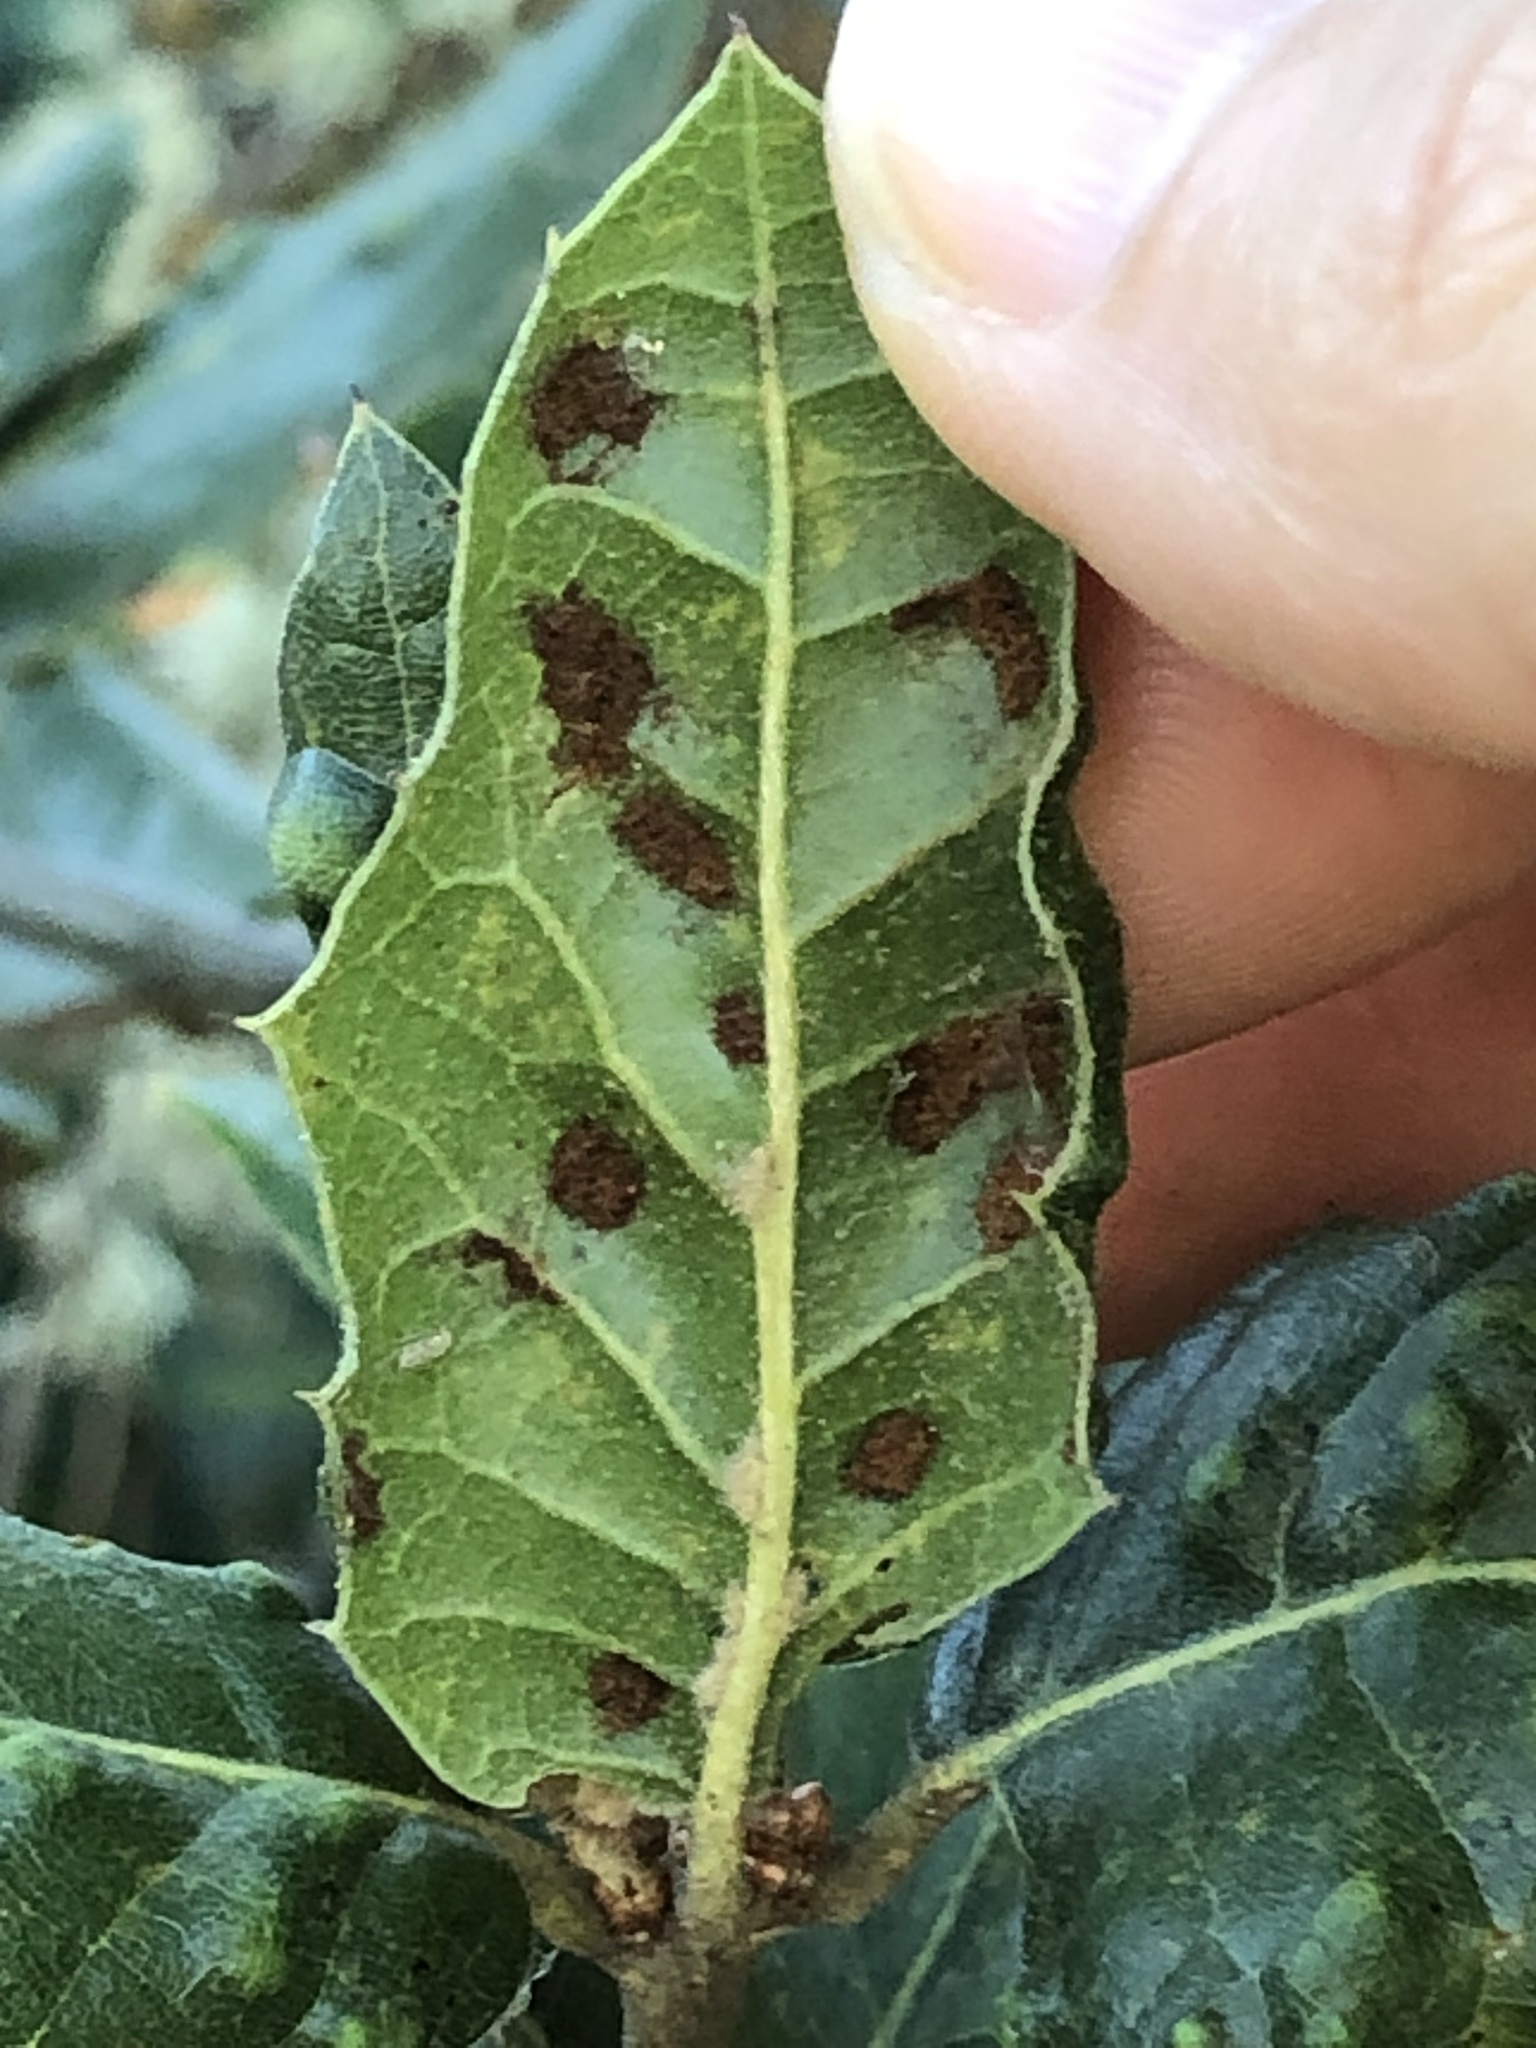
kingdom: Animalia
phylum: Arthropoda
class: Arachnida
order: Trombidiformes
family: Eriophyidae
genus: Aceria
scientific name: Aceria
